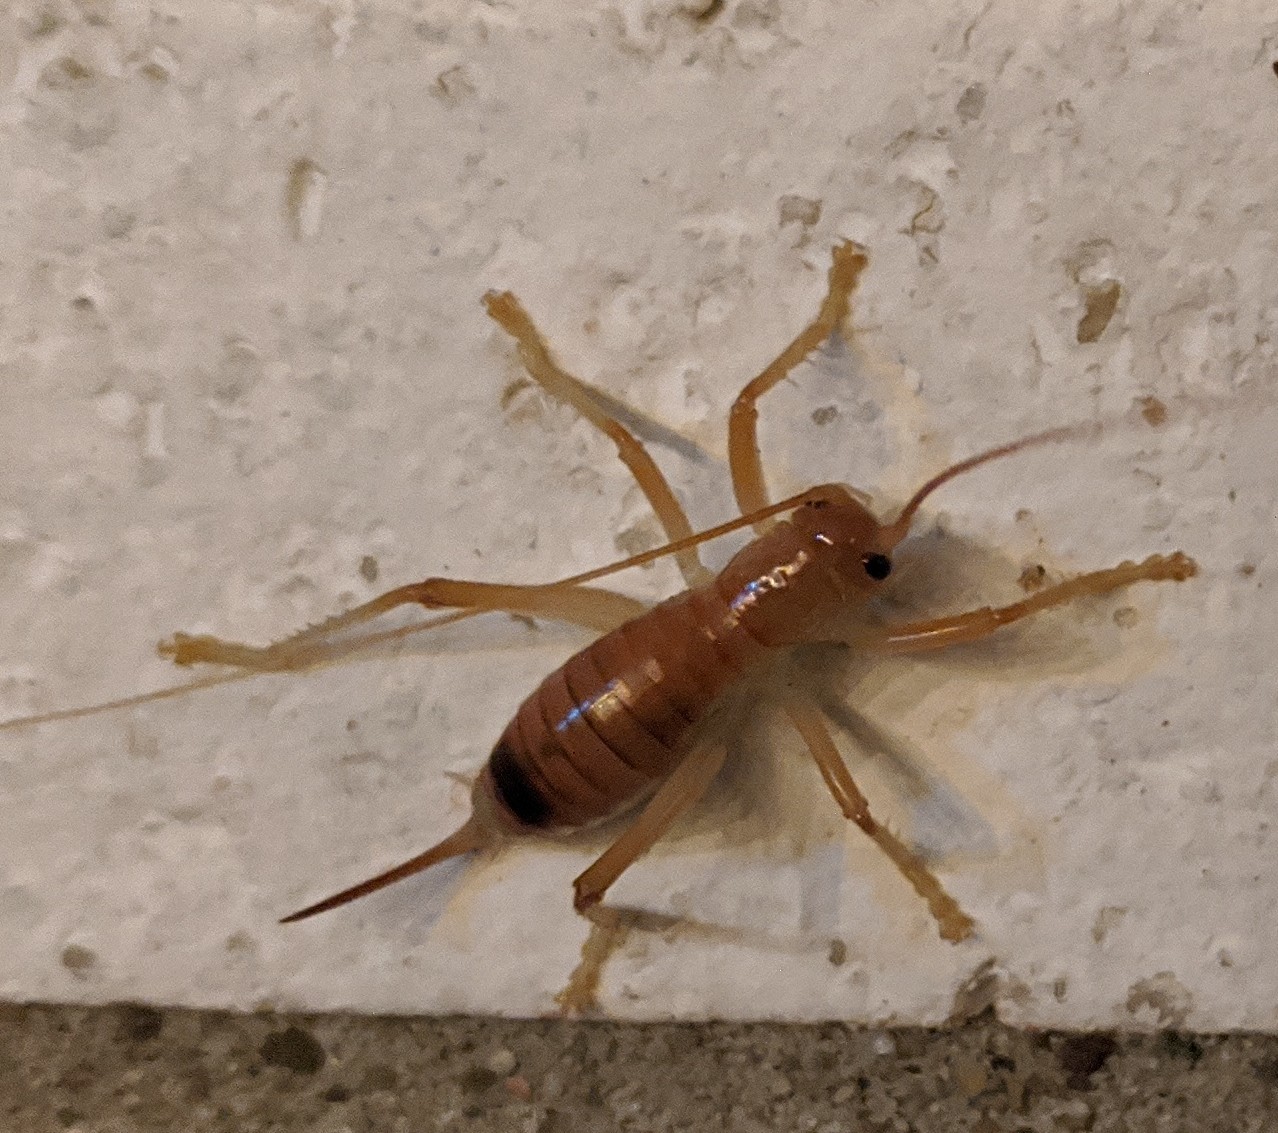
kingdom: Animalia
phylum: Arthropoda
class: Insecta
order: Orthoptera
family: Gryllacrididae
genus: Camptonotus
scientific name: Camptonotus carolinensis
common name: Carolina leaf-roller
